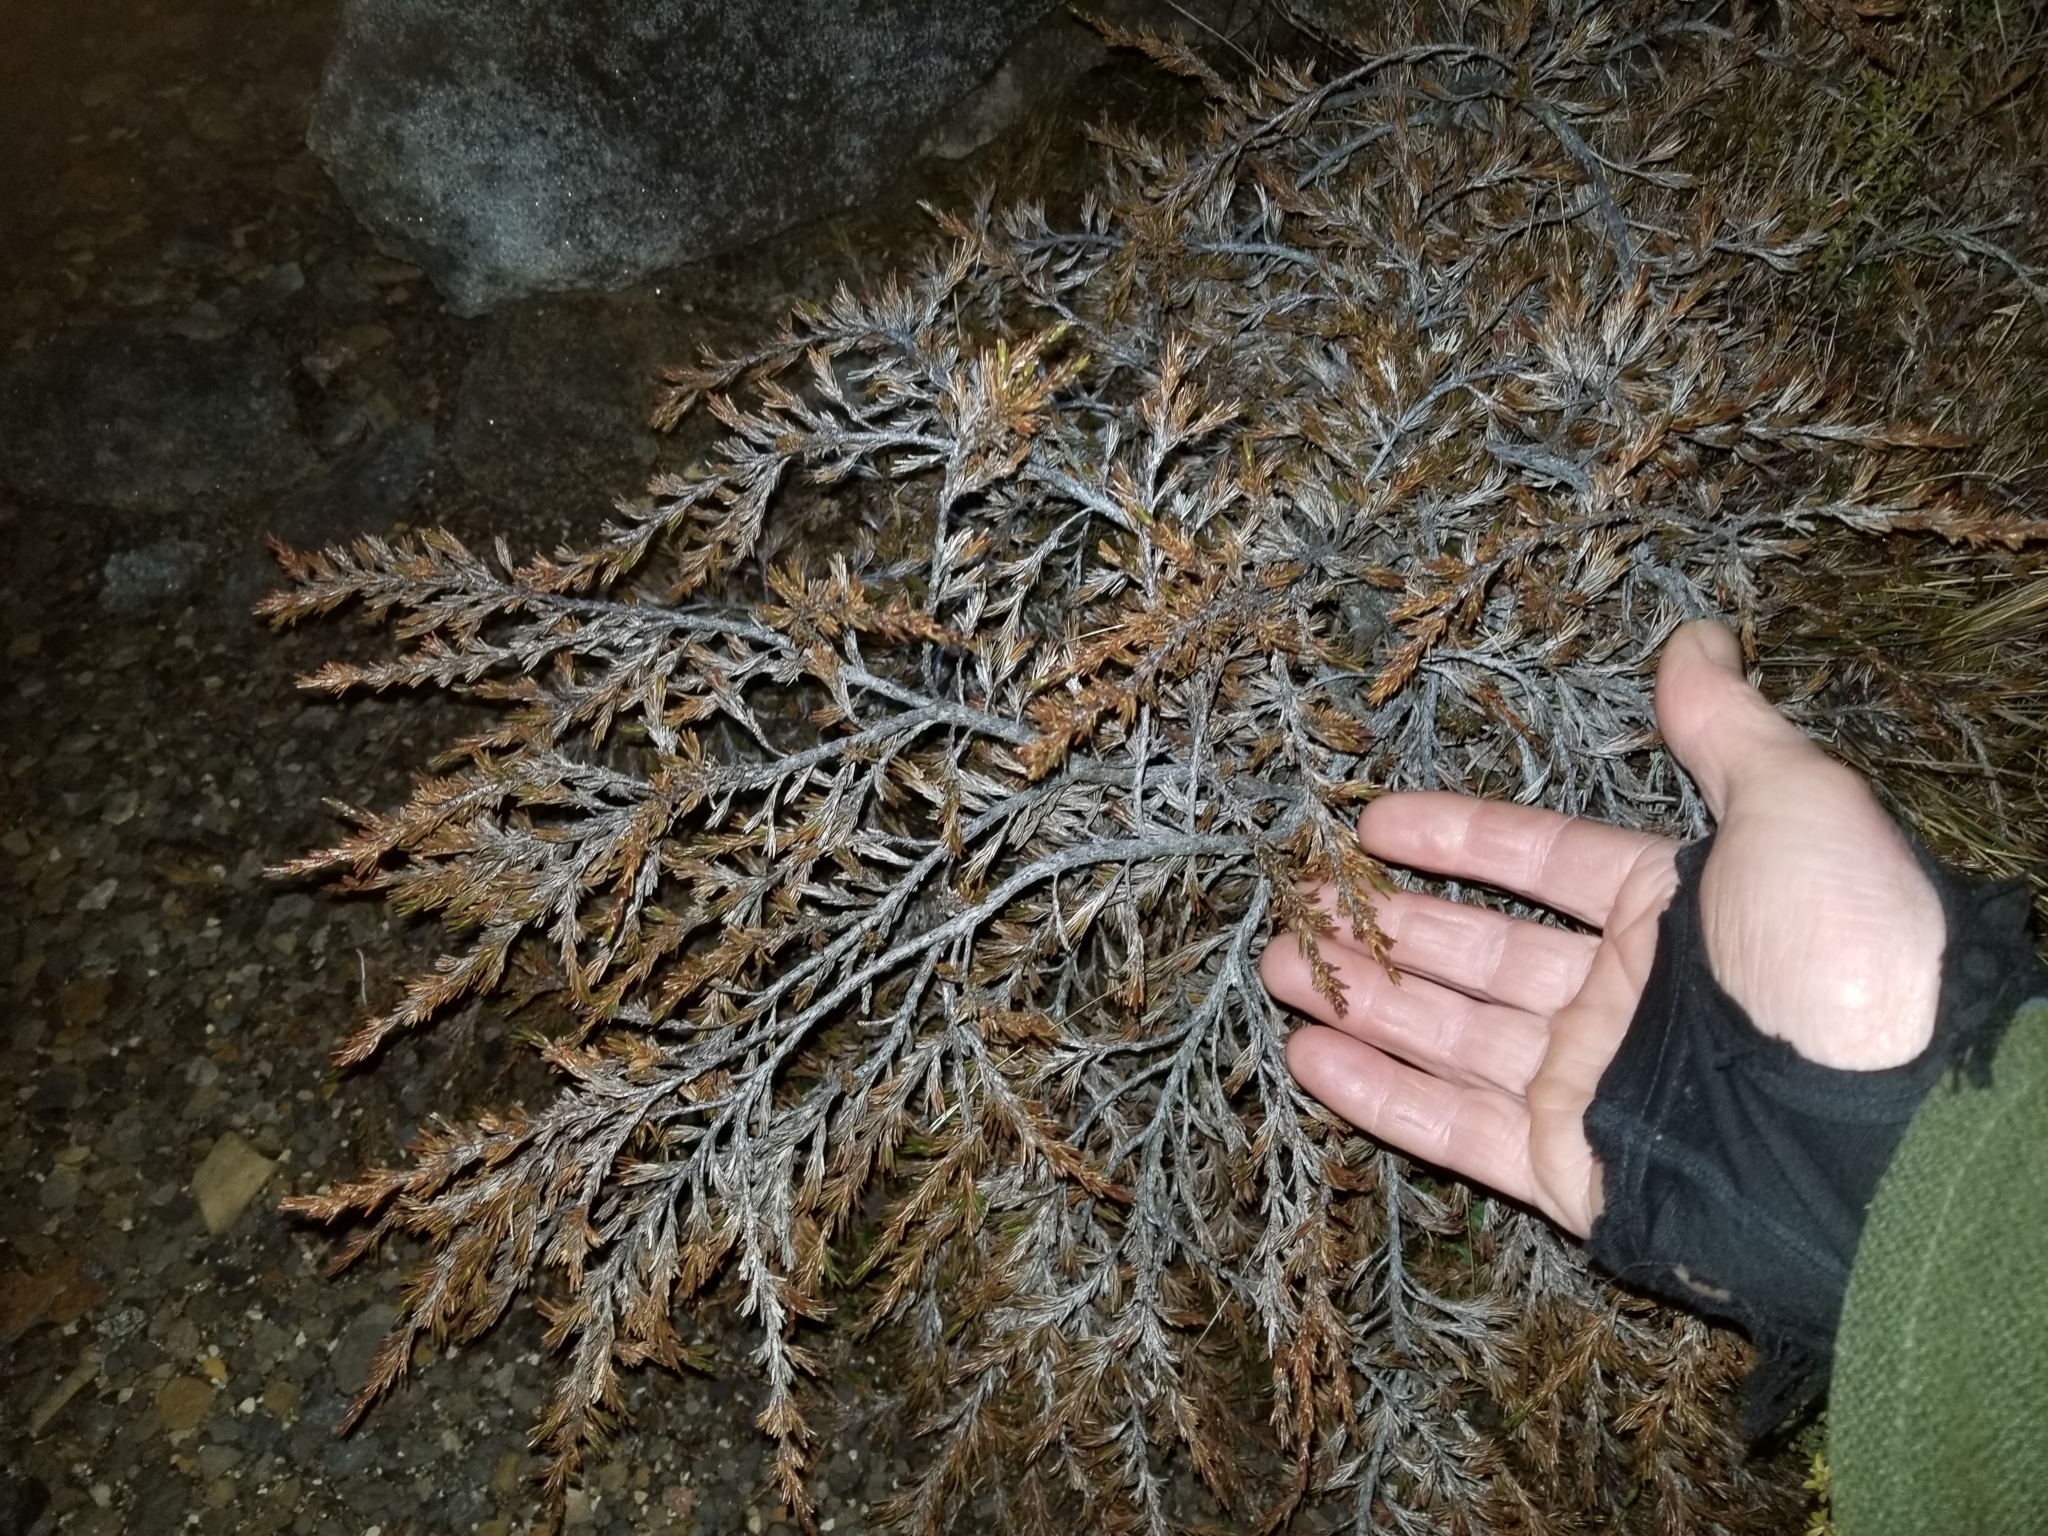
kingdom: Plantae
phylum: Tracheophyta
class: Magnoliopsida
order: Ericales
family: Ericaceae
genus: Dracophyllum
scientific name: Dracophyllum densum
